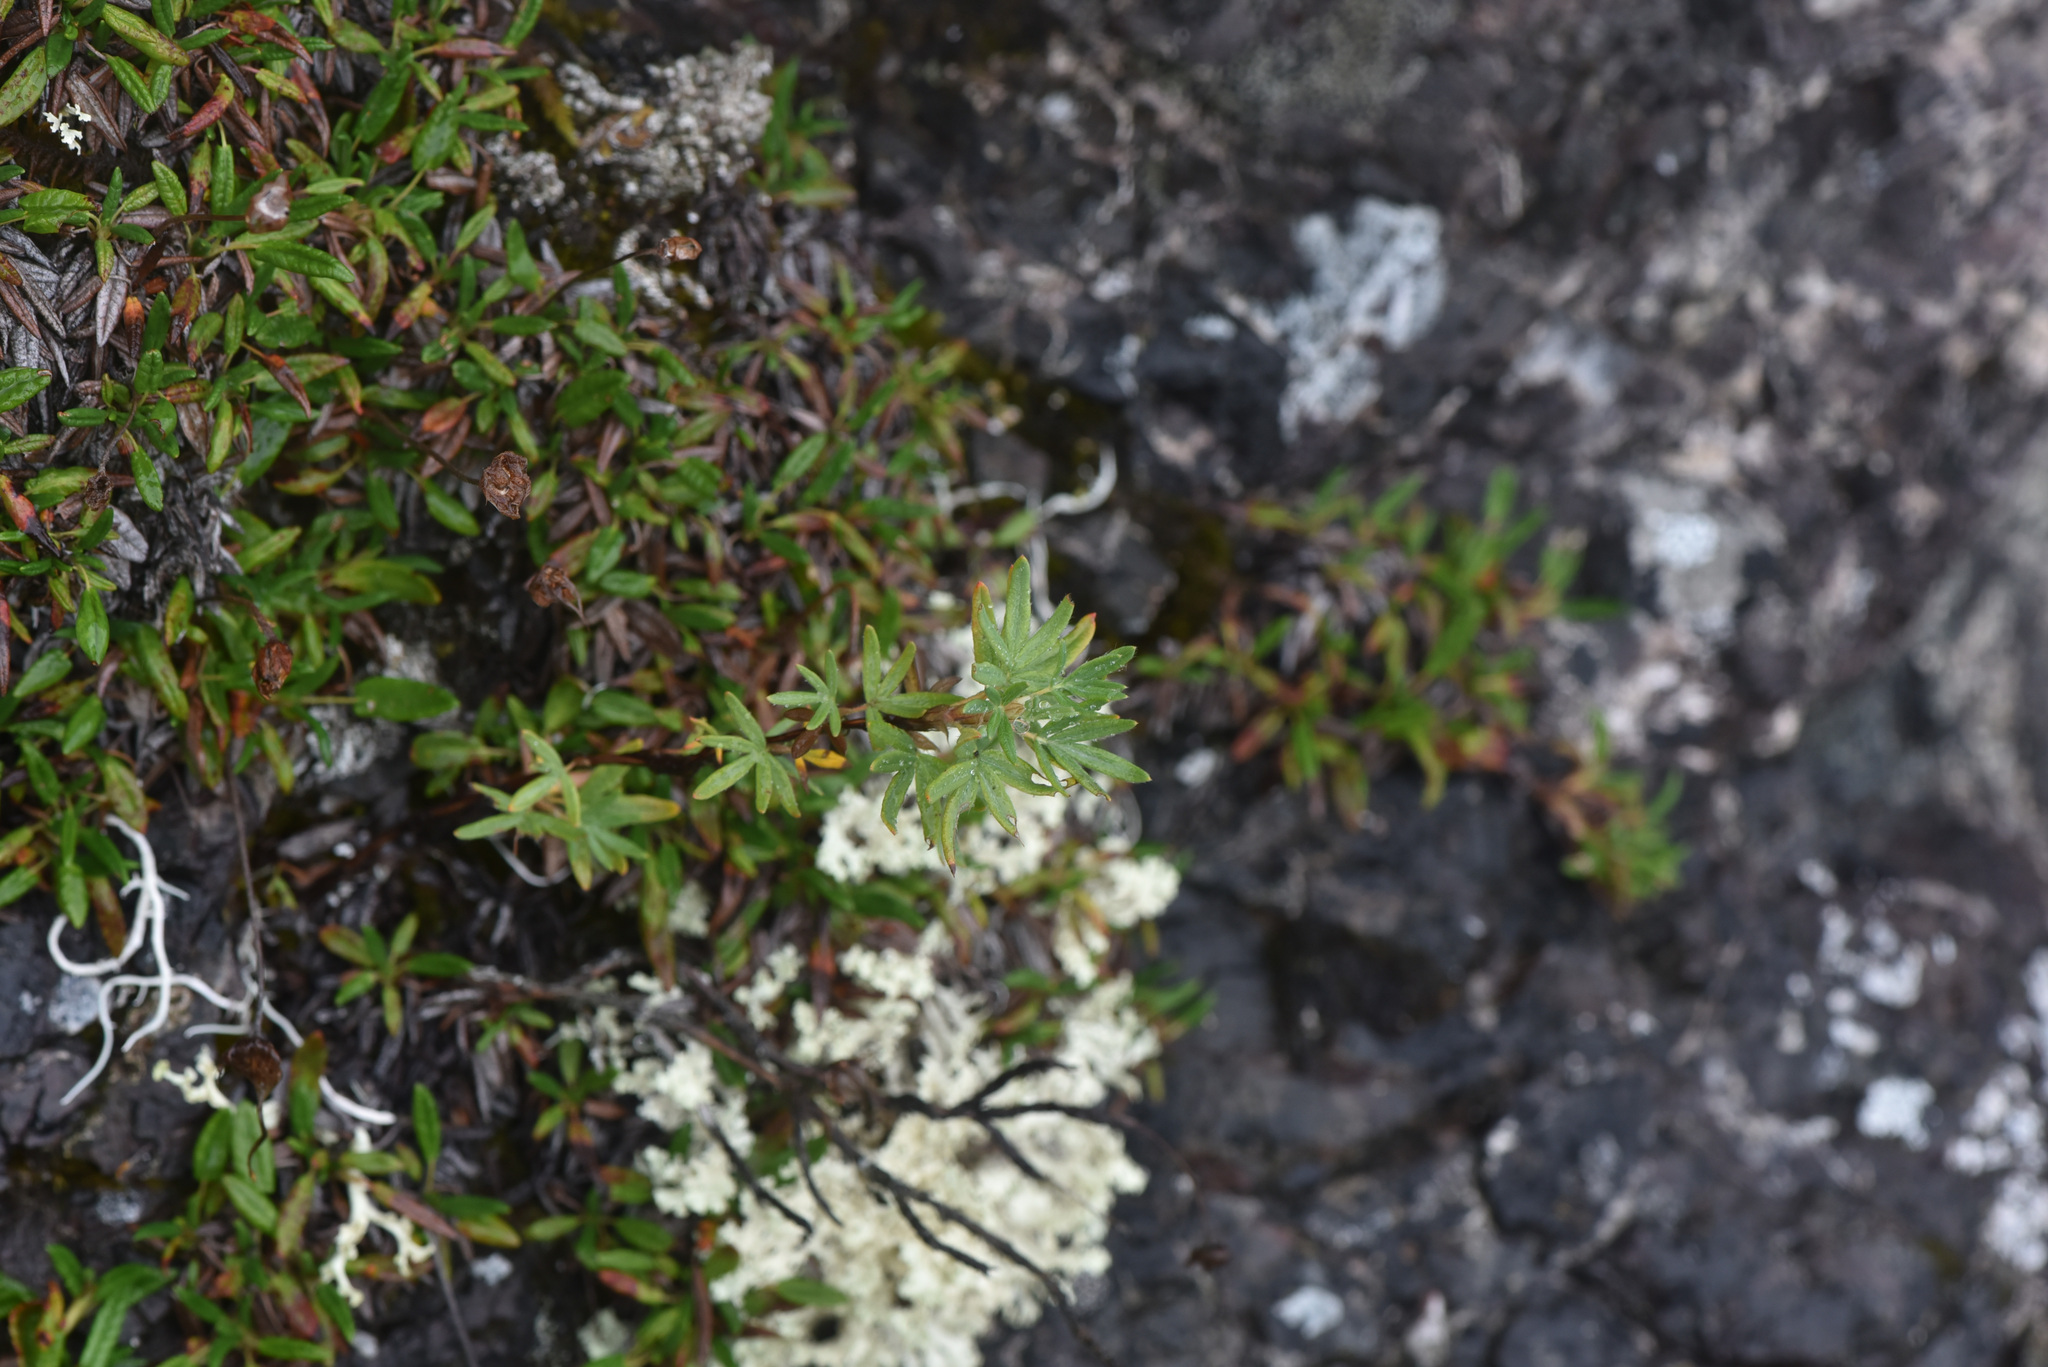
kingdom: Plantae
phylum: Tracheophyta
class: Magnoliopsida
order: Rosales
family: Rosaceae
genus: Dasiphora
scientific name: Dasiphora fruticosa
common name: Shrubby cinquefoil
